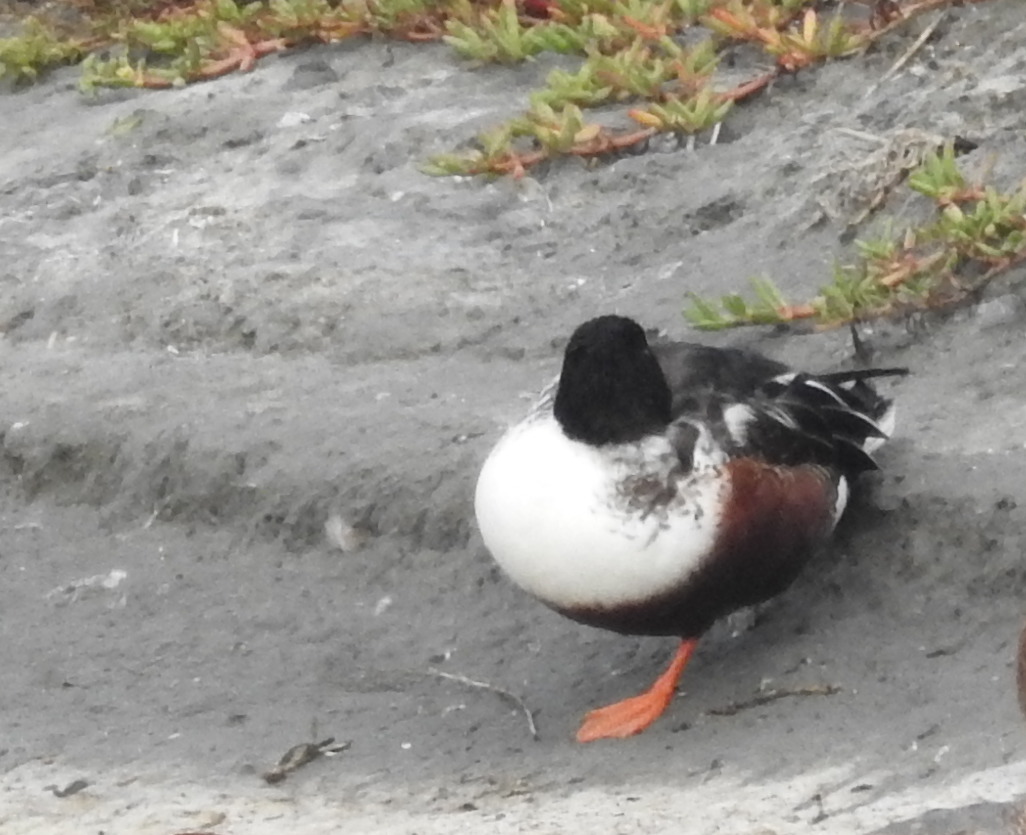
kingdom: Animalia
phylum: Chordata
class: Aves
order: Anseriformes
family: Anatidae
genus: Spatula
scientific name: Spatula clypeata
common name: Northern shoveler
